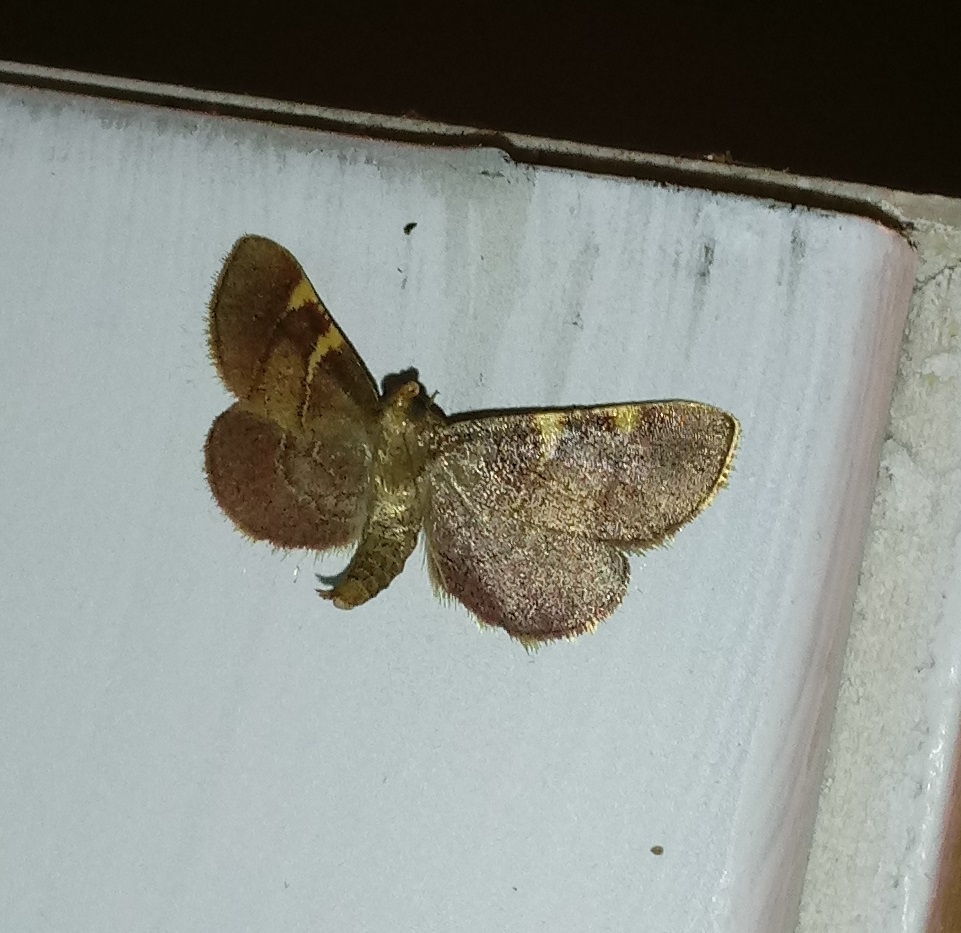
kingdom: Animalia
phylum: Arthropoda
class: Insecta
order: Lepidoptera
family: Pyralidae
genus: Hypsopygia
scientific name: Hypsopygia olinalis
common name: Yellow-fringed dolichomia moth
